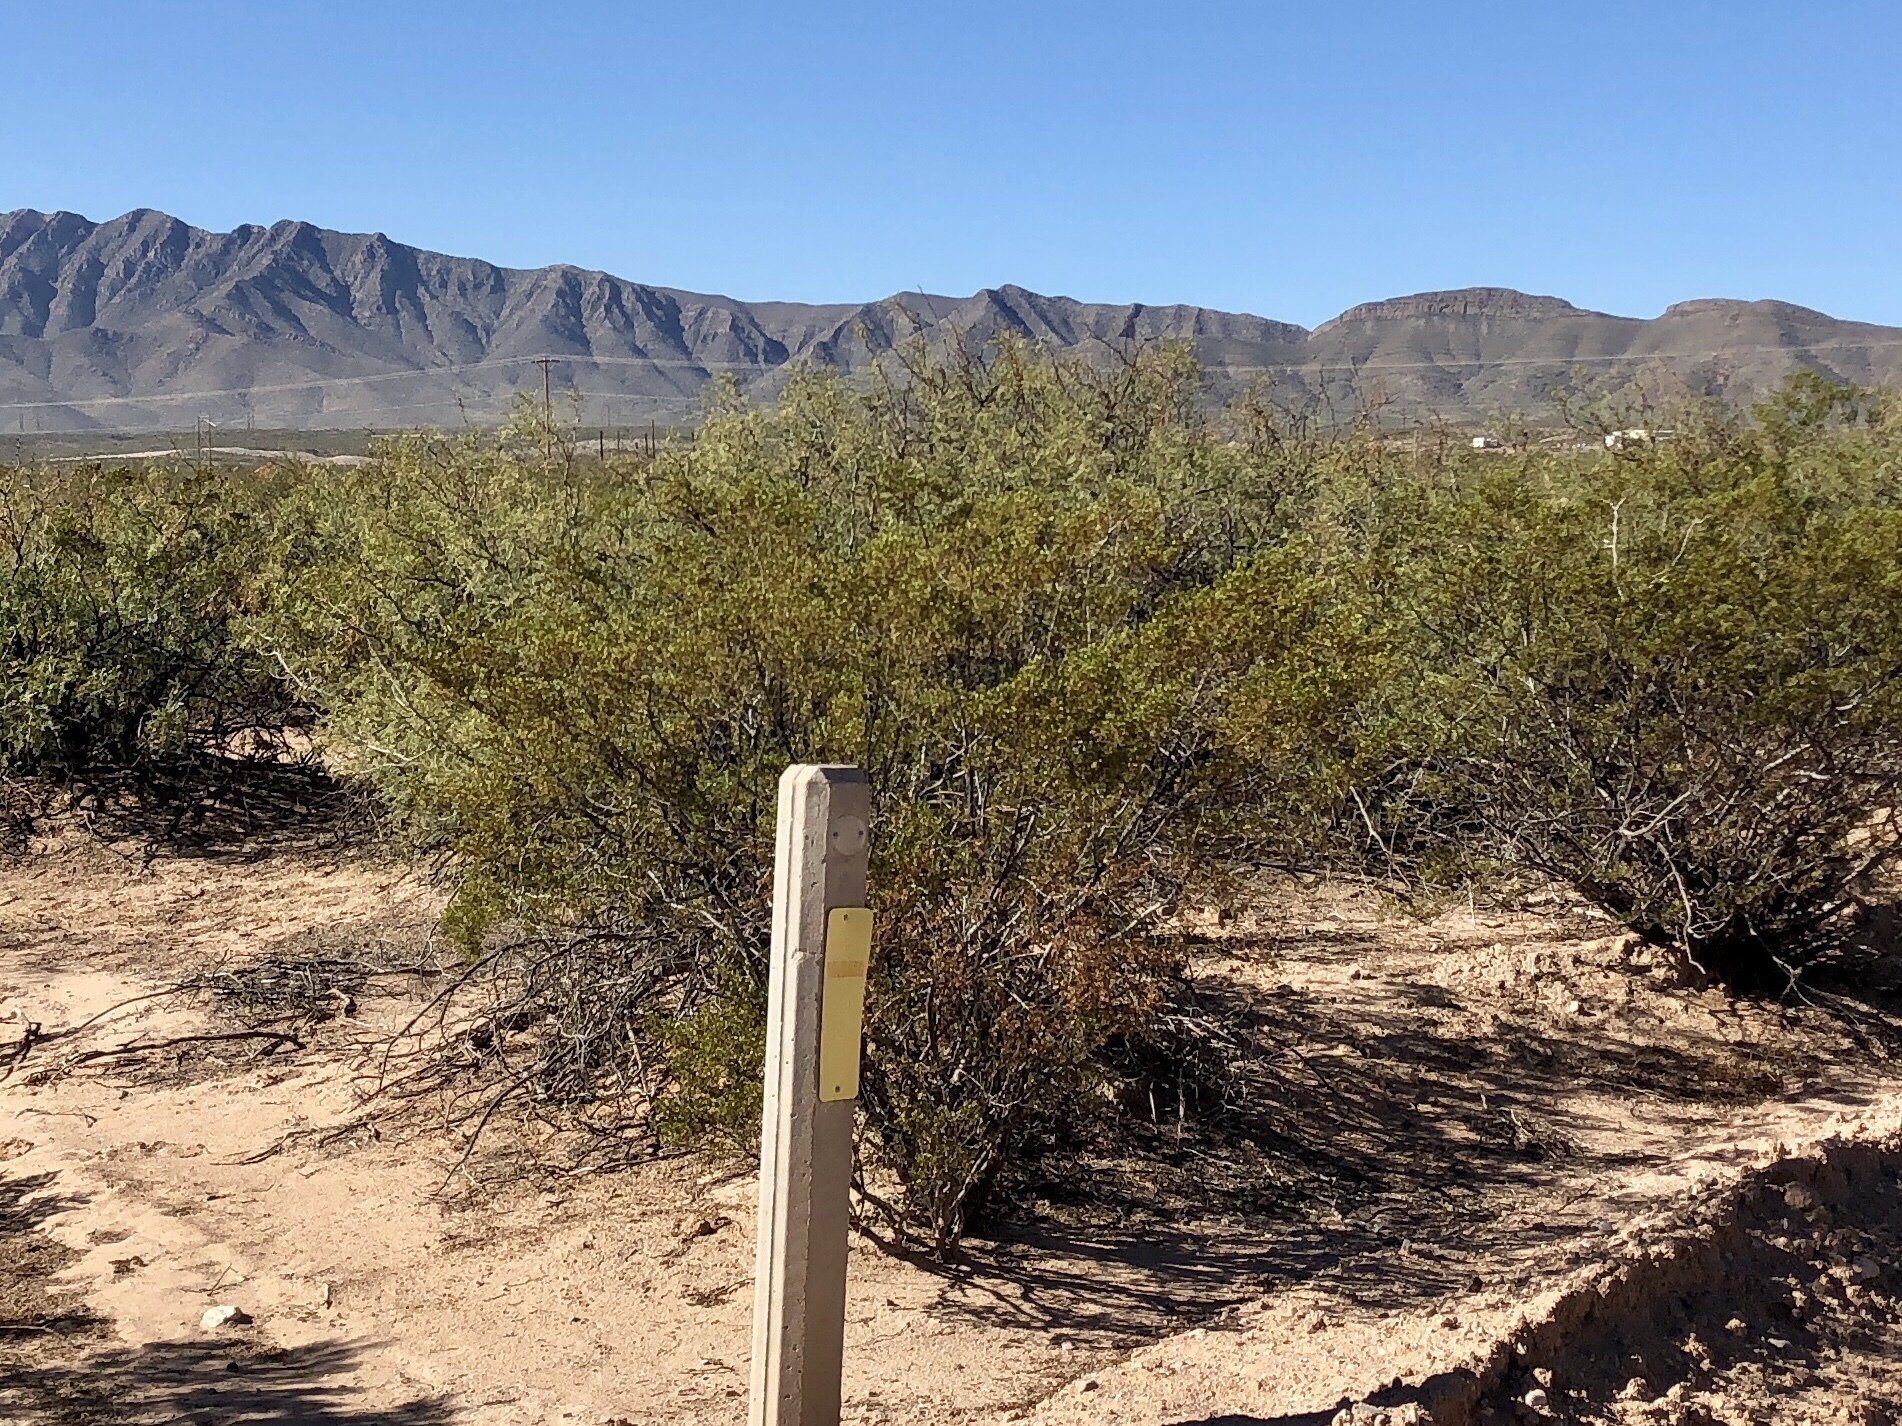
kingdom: Plantae
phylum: Tracheophyta
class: Magnoliopsida
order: Zygophyllales
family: Zygophyllaceae
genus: Larrea
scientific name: Larrea tridentata
